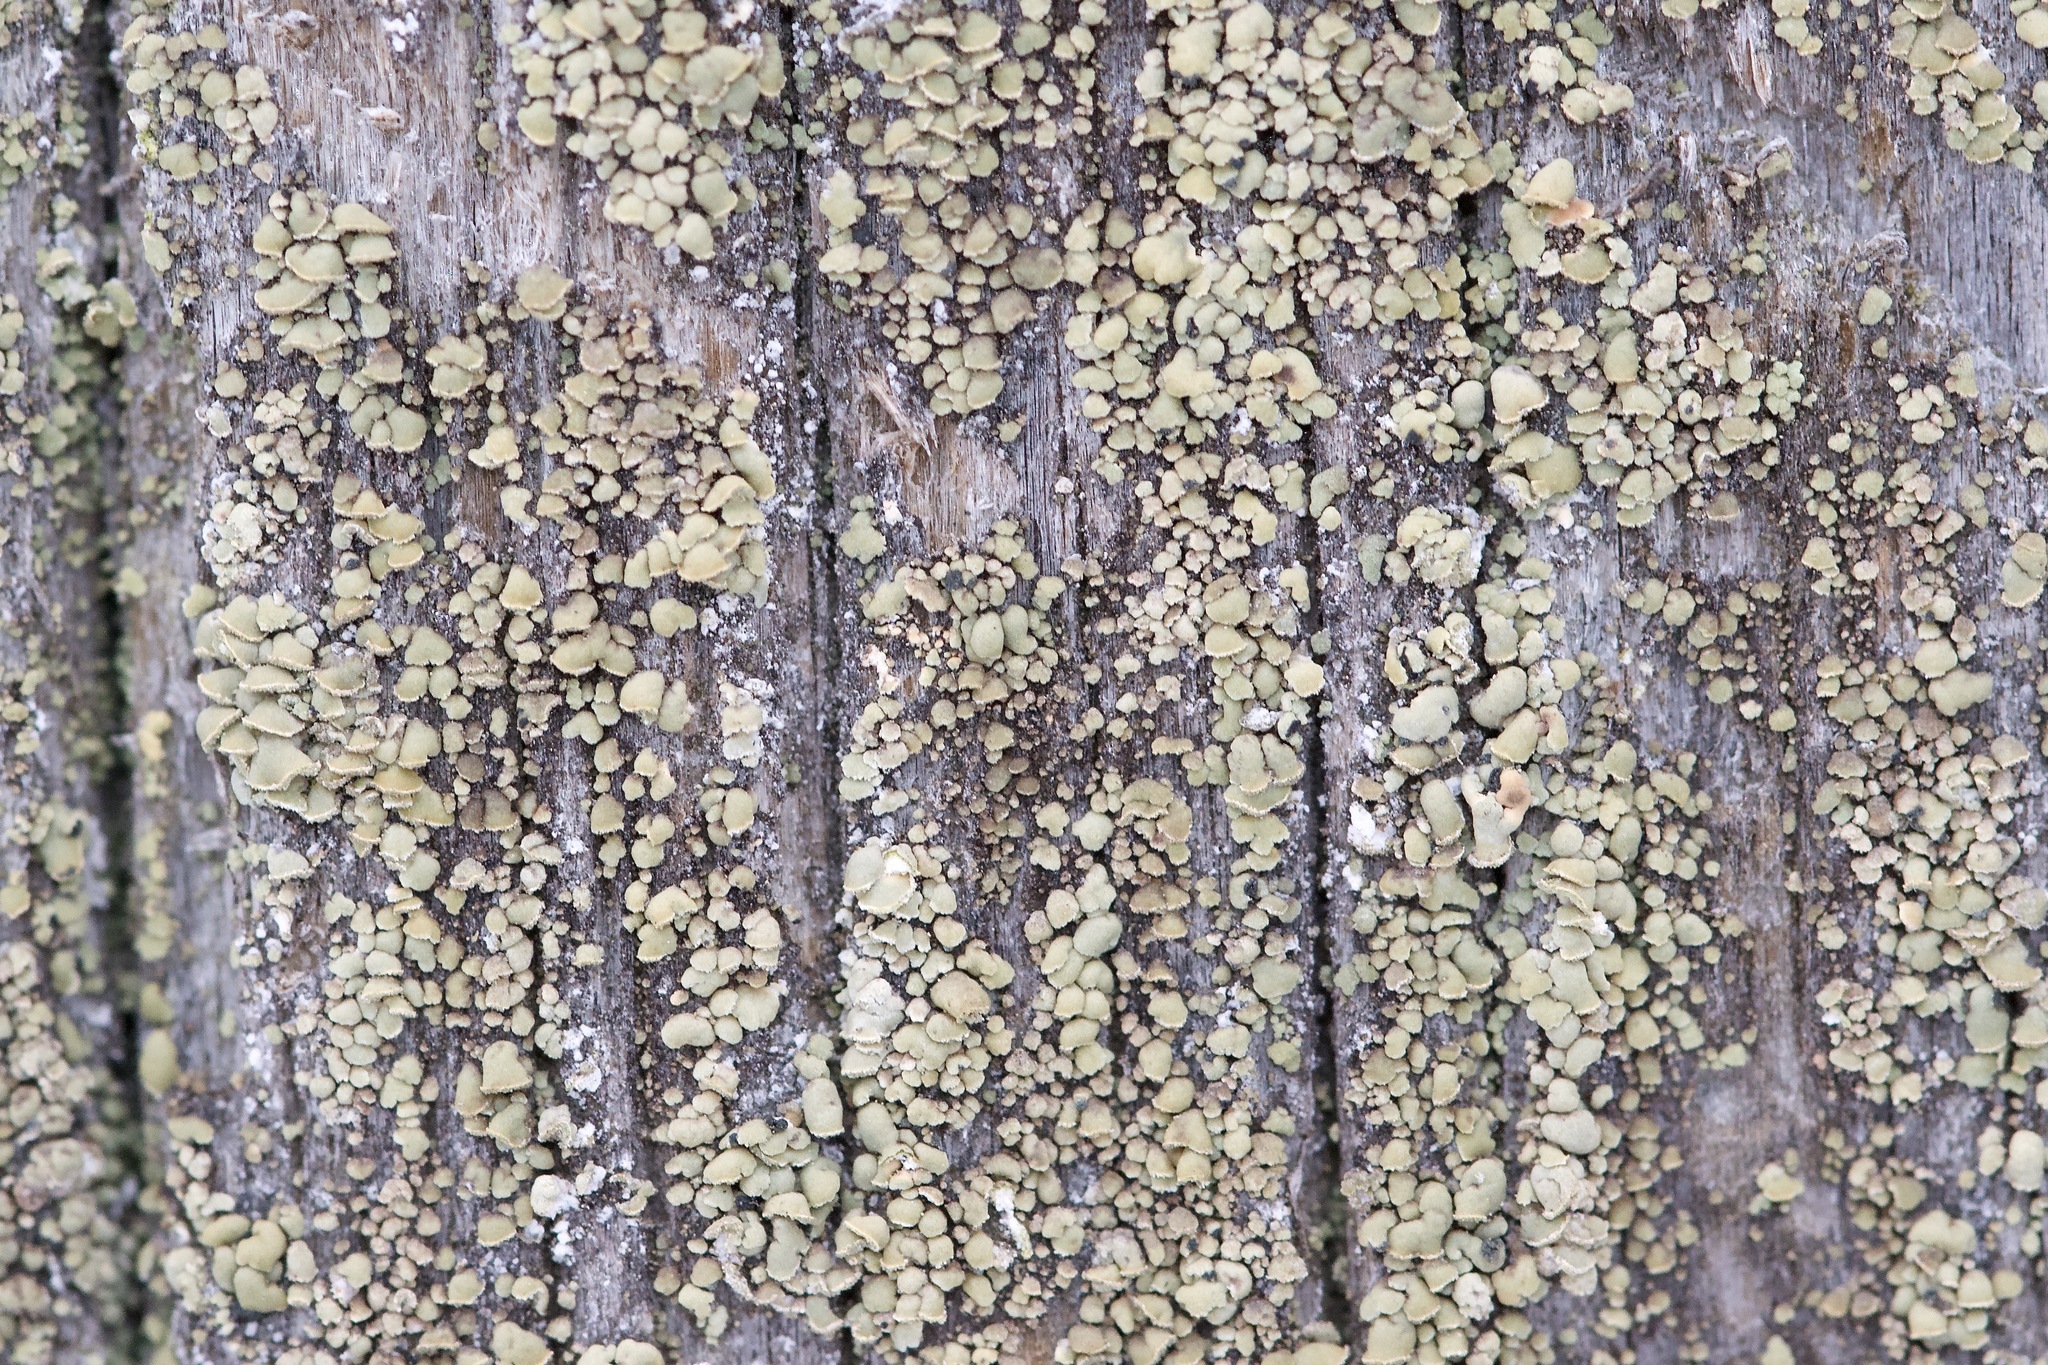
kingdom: Fungi
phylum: Ascomycota
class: Lecanoromycetes
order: Umbilicariales
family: Ophioparmaceae
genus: Hypocenomyce
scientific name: Hypocenomyce scalaris
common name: Common clam lichen
